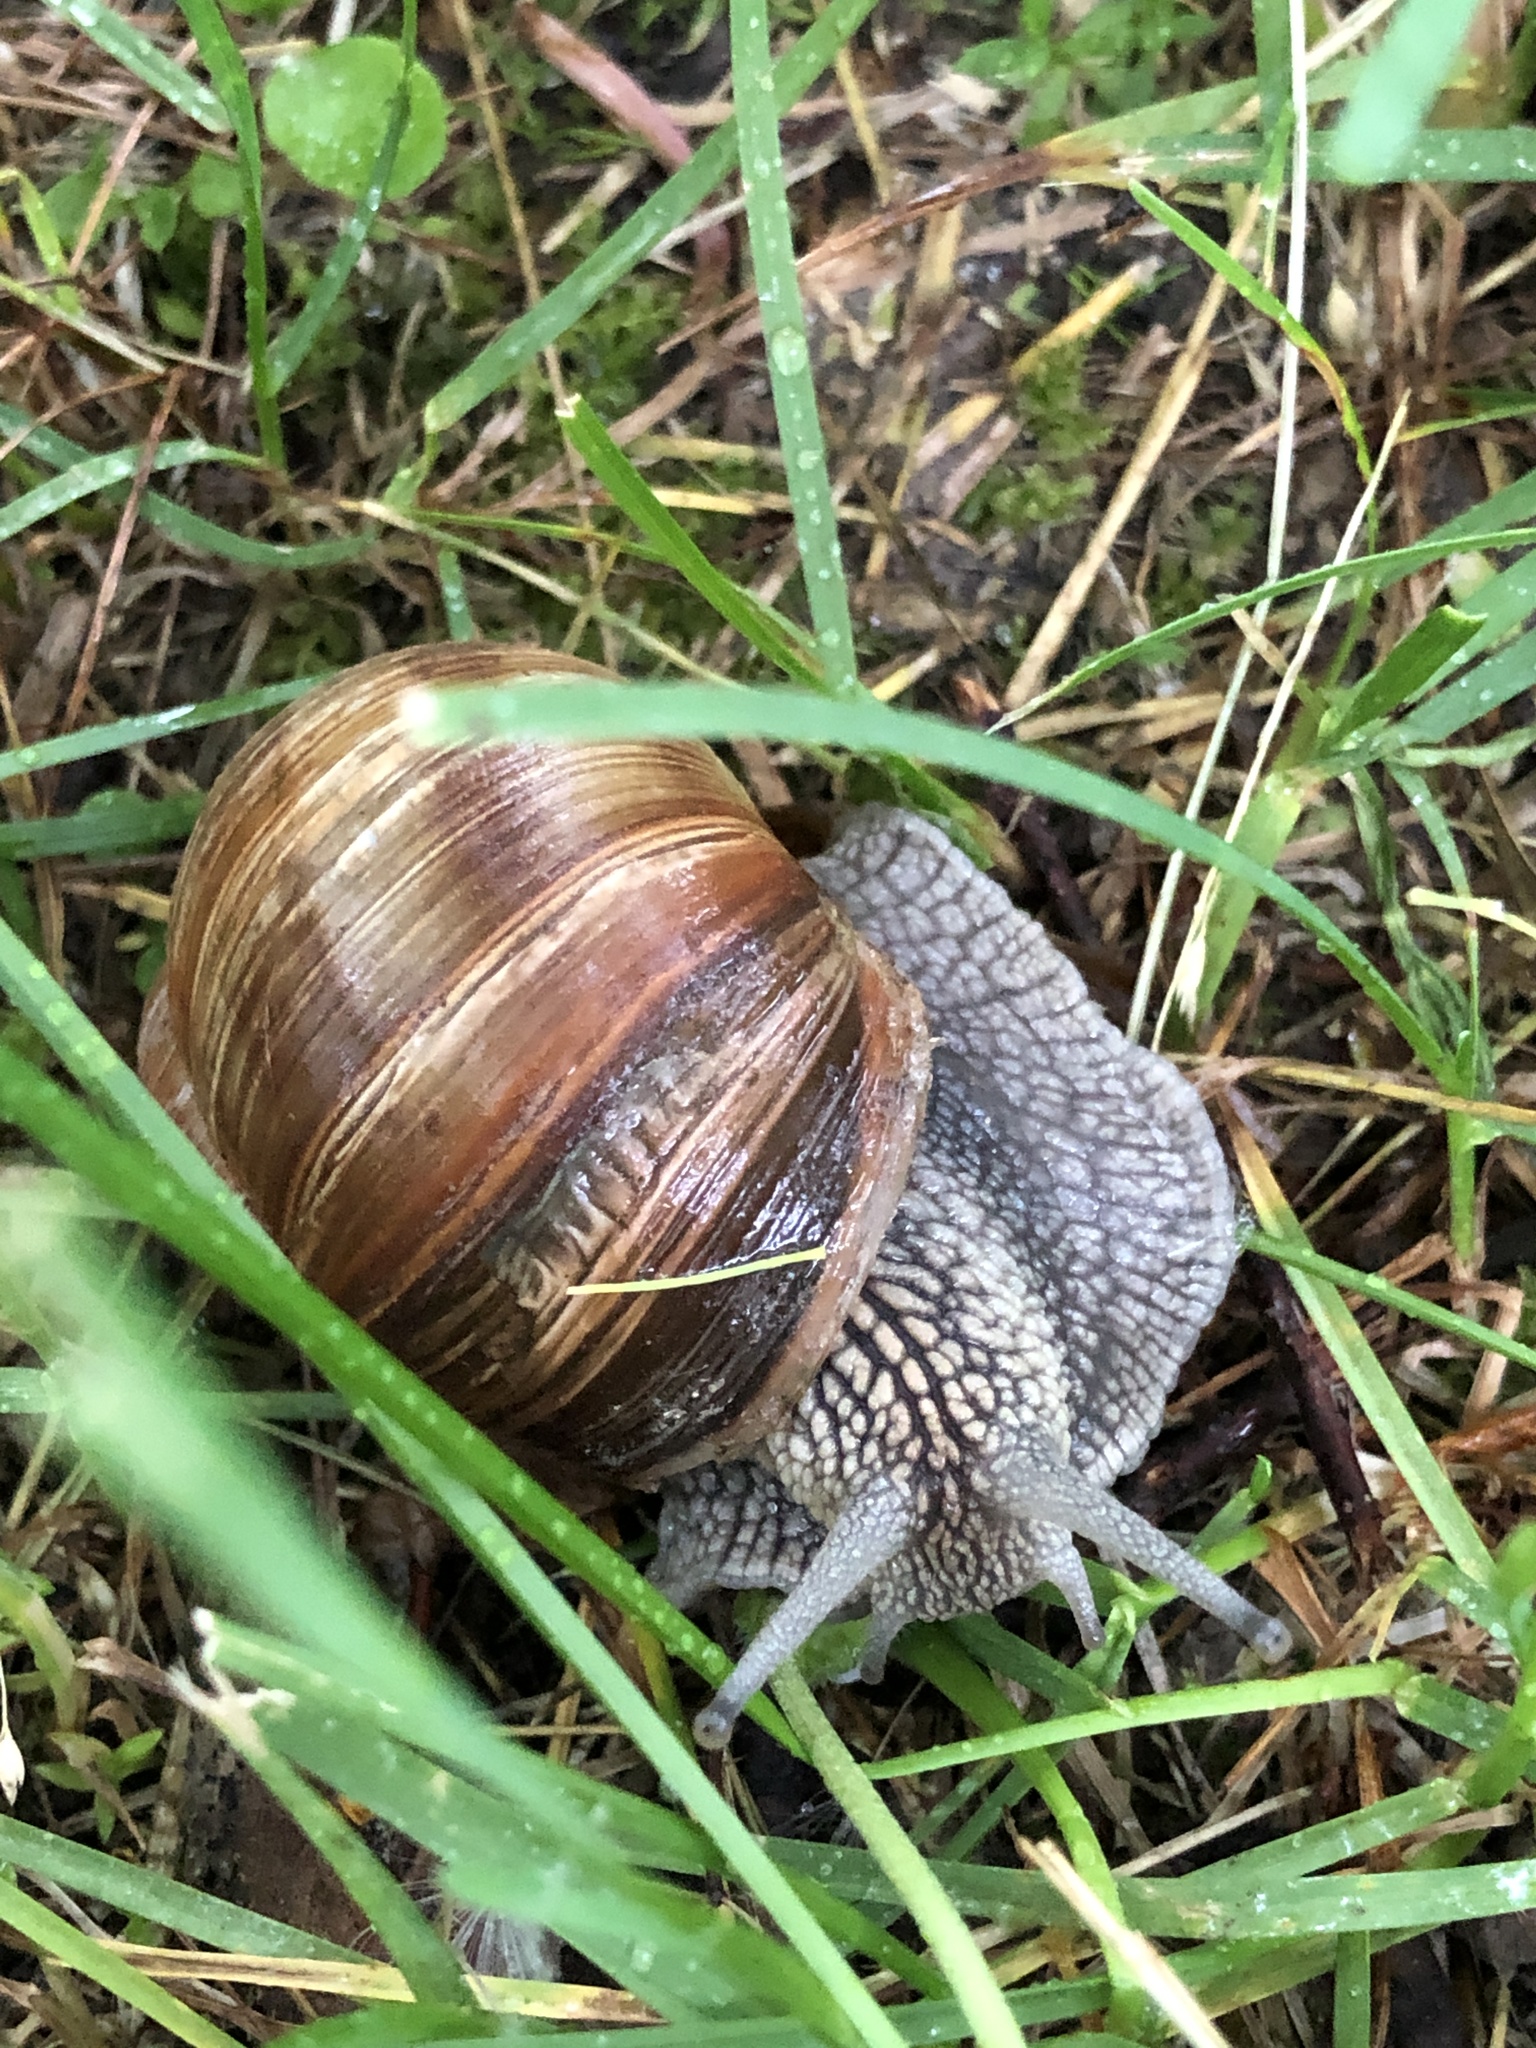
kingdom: Animalia
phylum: Mollusca
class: Gastropoda
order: Stylommatophora
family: Helicidae
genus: Helix
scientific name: Helix pomatia
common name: Roman snail
